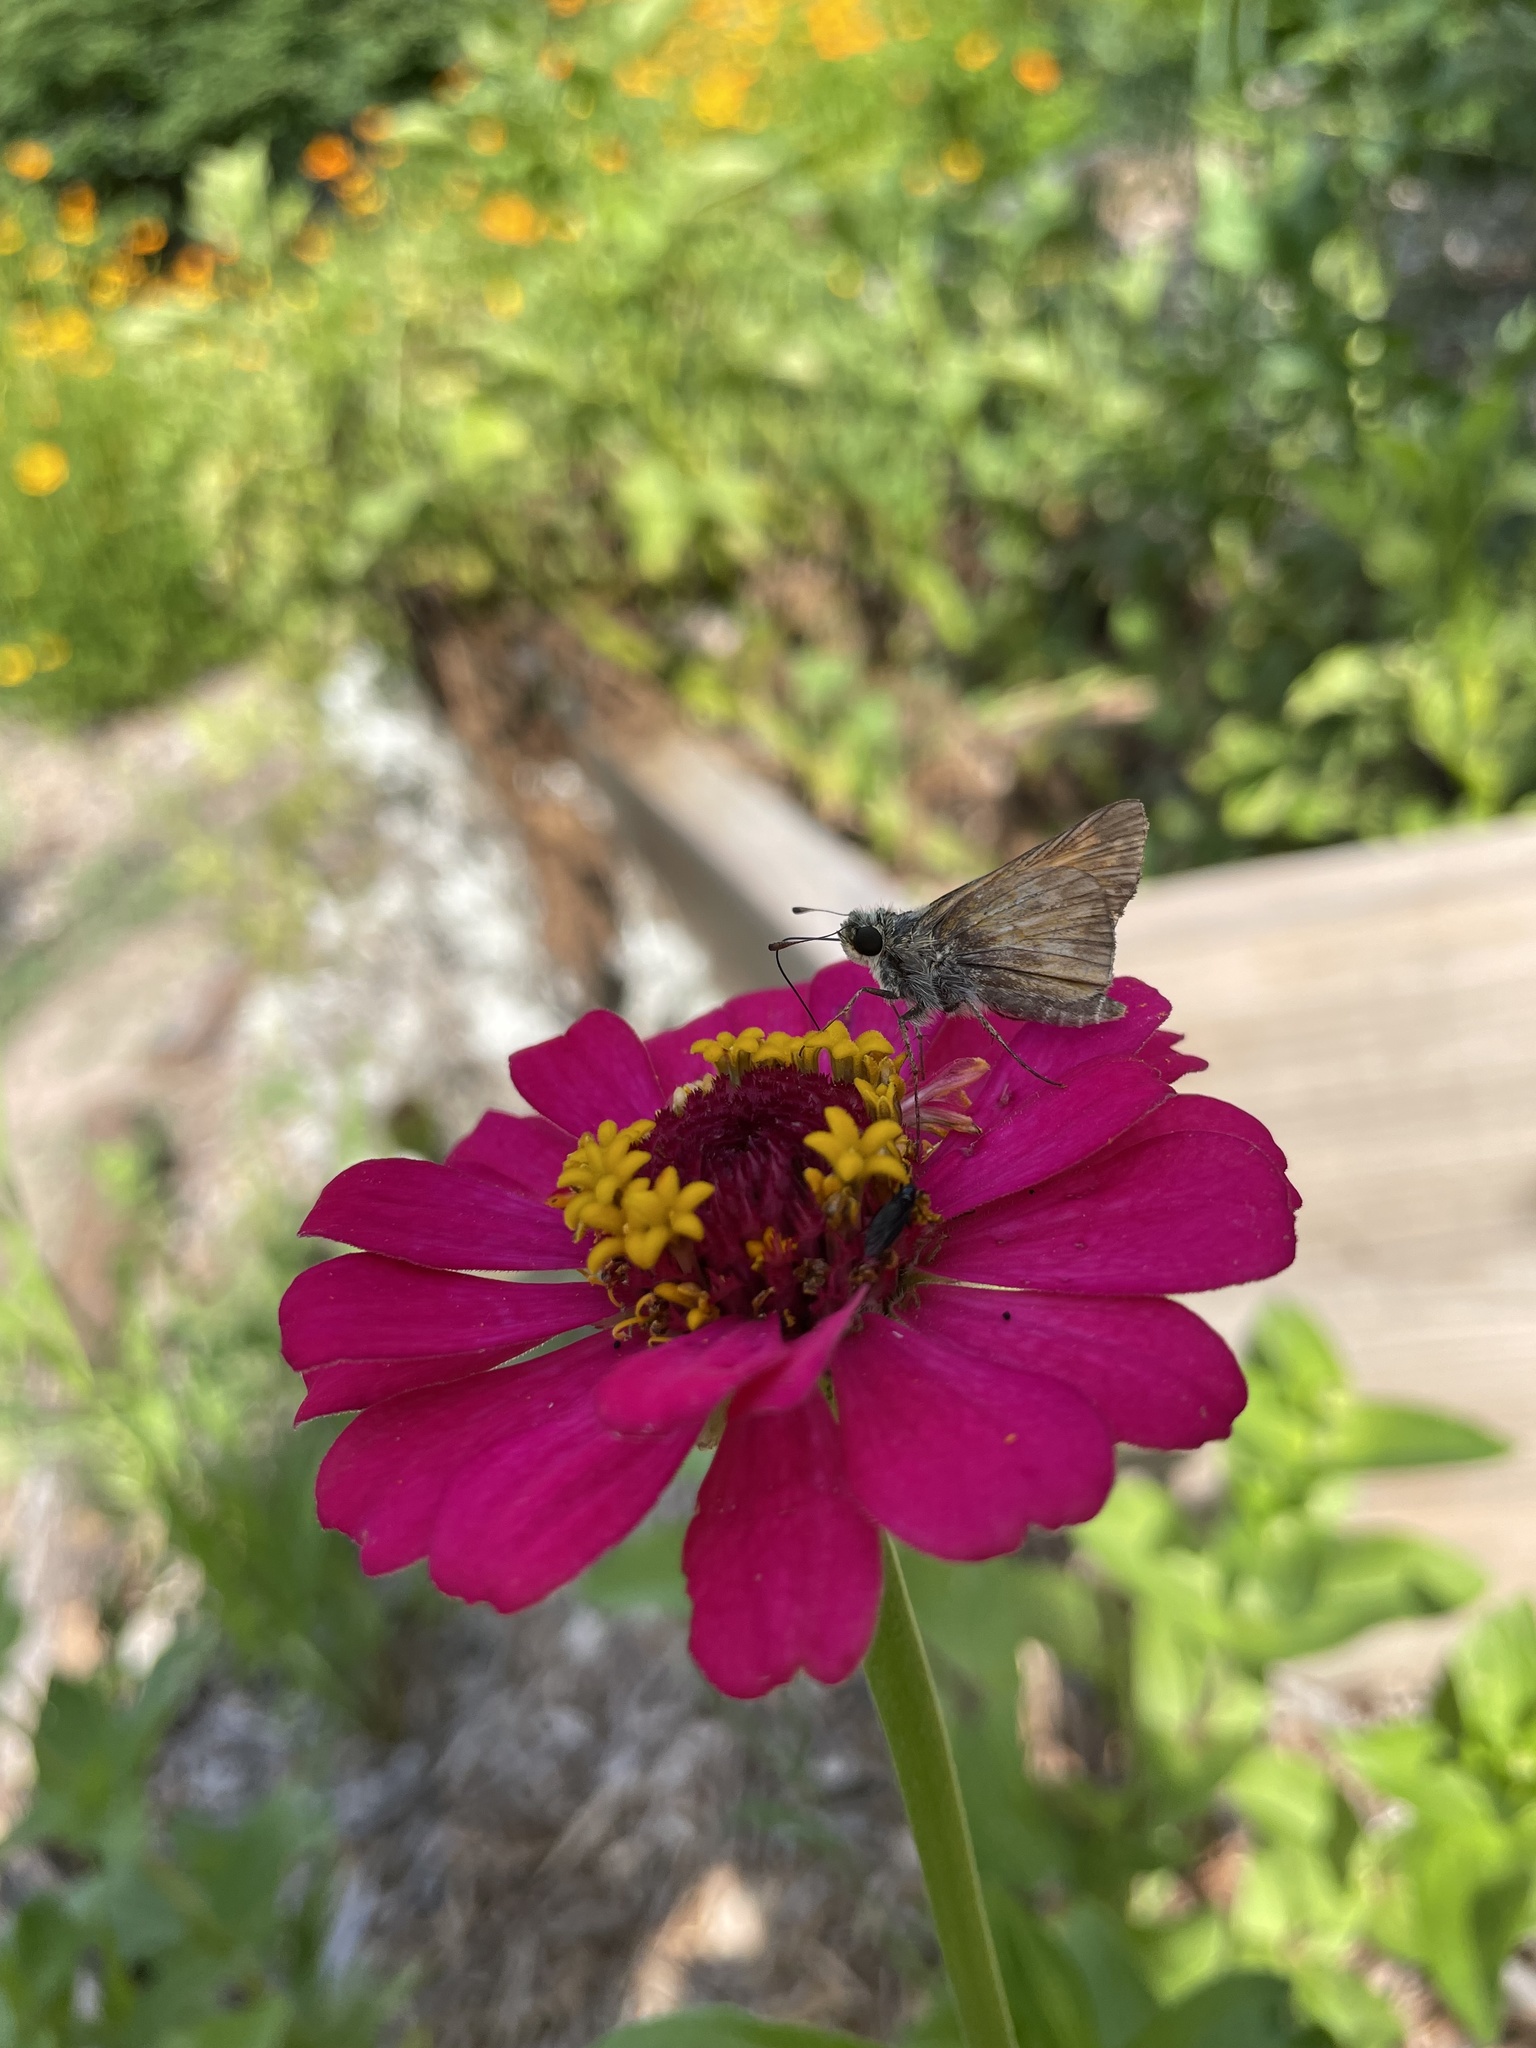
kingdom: Animalia
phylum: Arthropoda
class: Insecta
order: Lepidoptera
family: Hesperiidae
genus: Atalopedes
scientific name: Atalopedes
